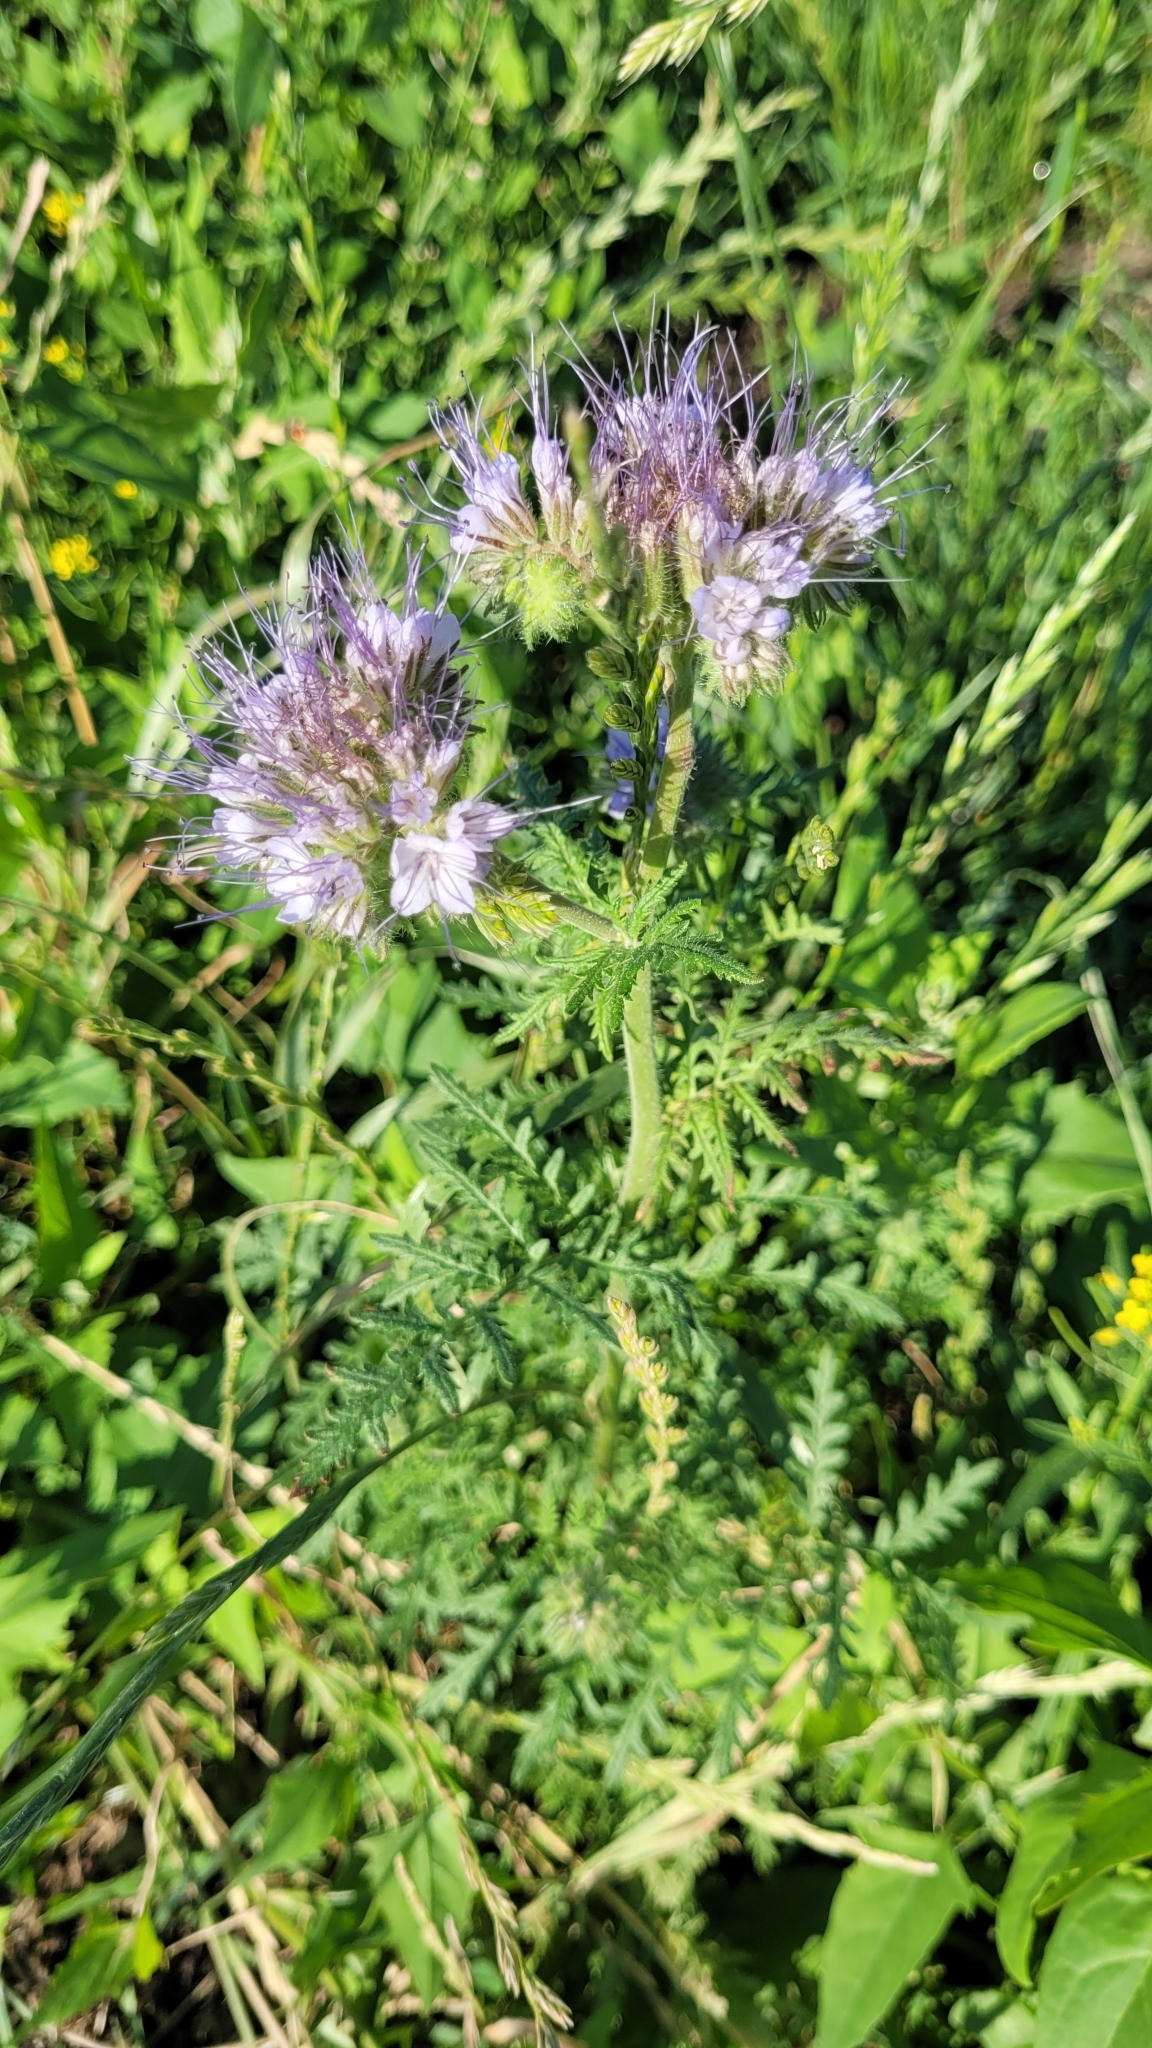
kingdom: Plantae
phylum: Tracheophyta
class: Magnoliopsida
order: Boraginales
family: Hydrophyllaceae
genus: Phacelia
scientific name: Phacelia tanacetifolia
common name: Phacelia
